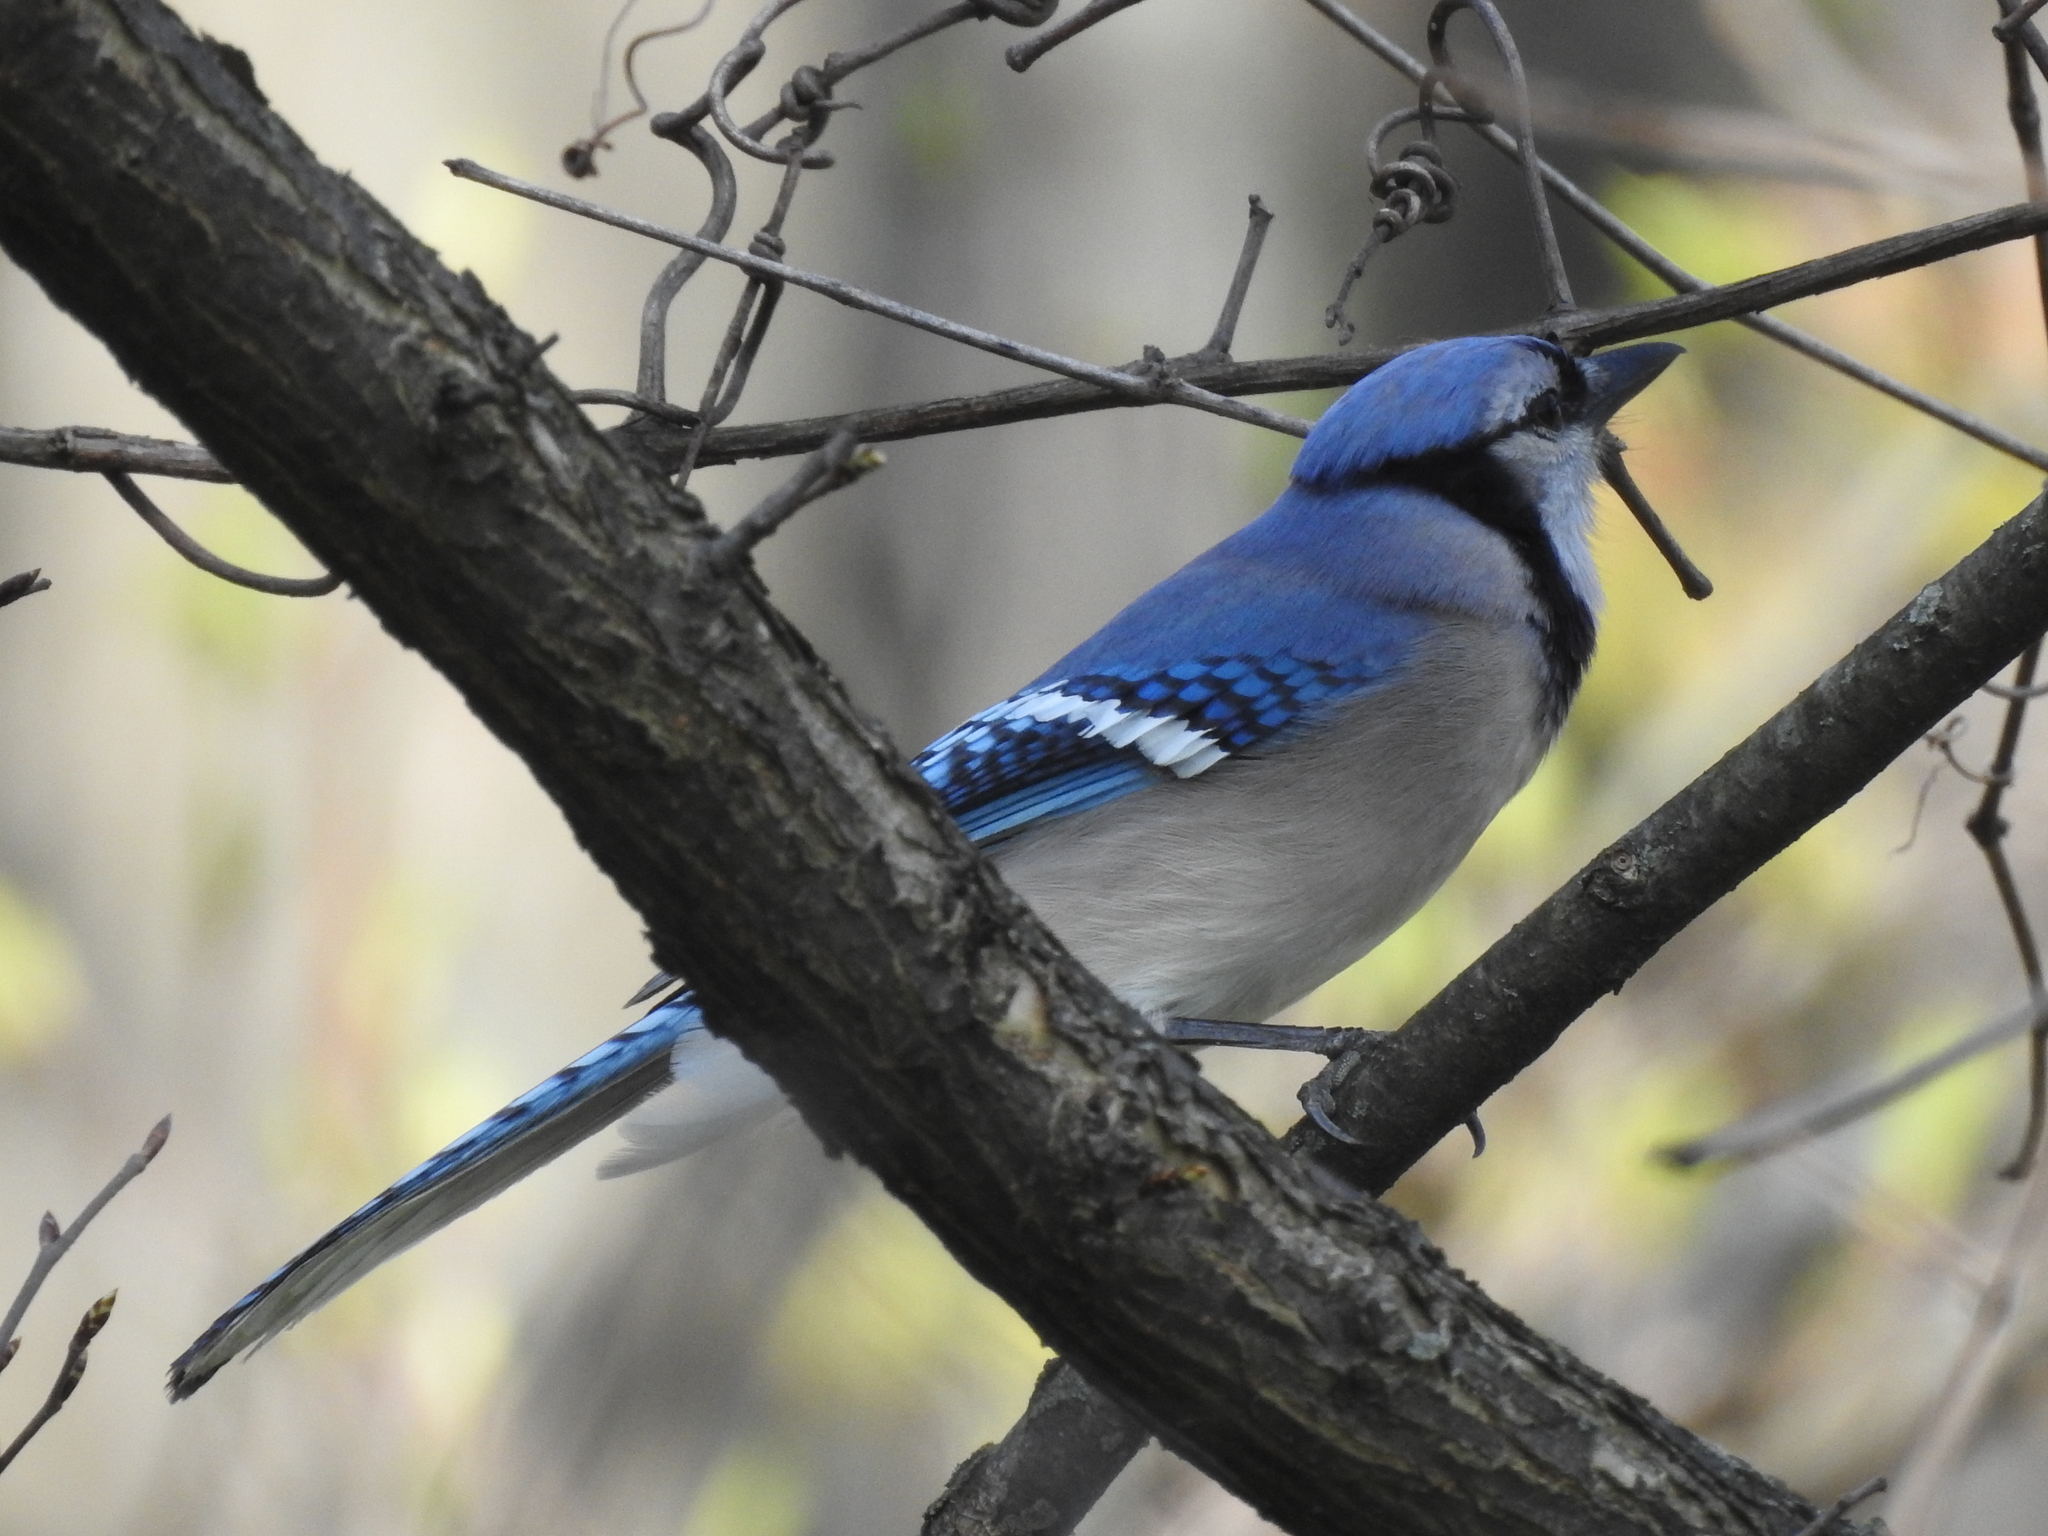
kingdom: Animalia
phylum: Chordata
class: Aves
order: Passeriformes
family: Corvidae
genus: Cyanocitta
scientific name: Cyanocitta cristata
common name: Blue jay
